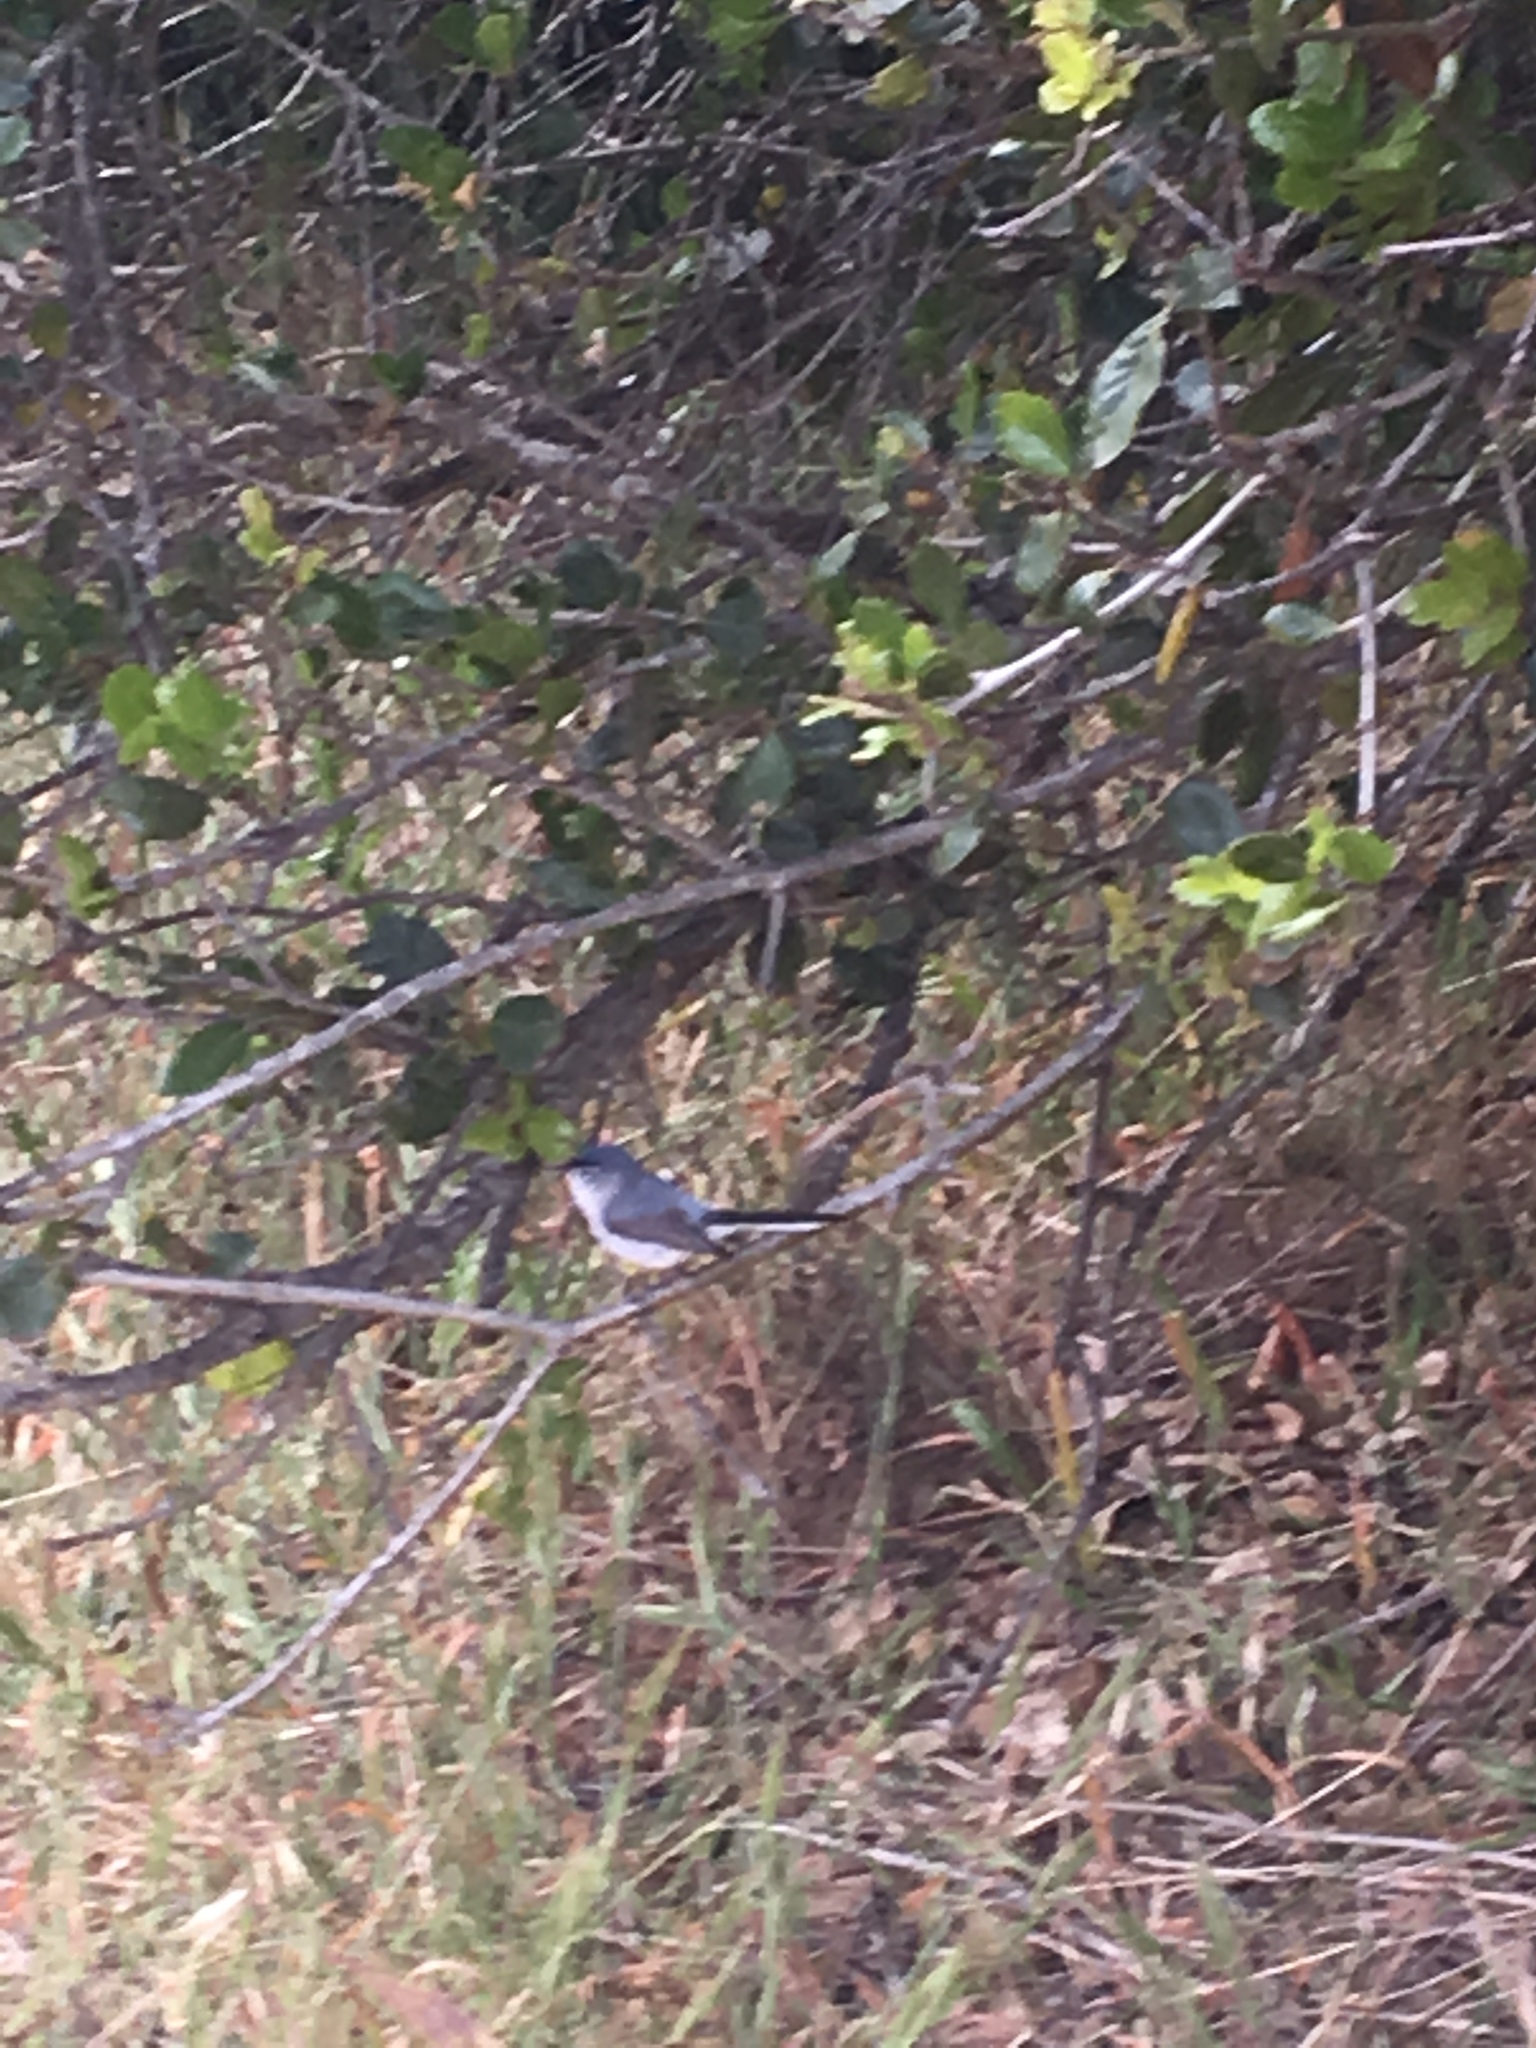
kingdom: Animalia
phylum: Chordata
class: Aves
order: Passeriformes
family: Polioptilidae
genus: Polioptila
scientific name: Polioptila caerulea
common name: Blue-gray gnatcatcher
